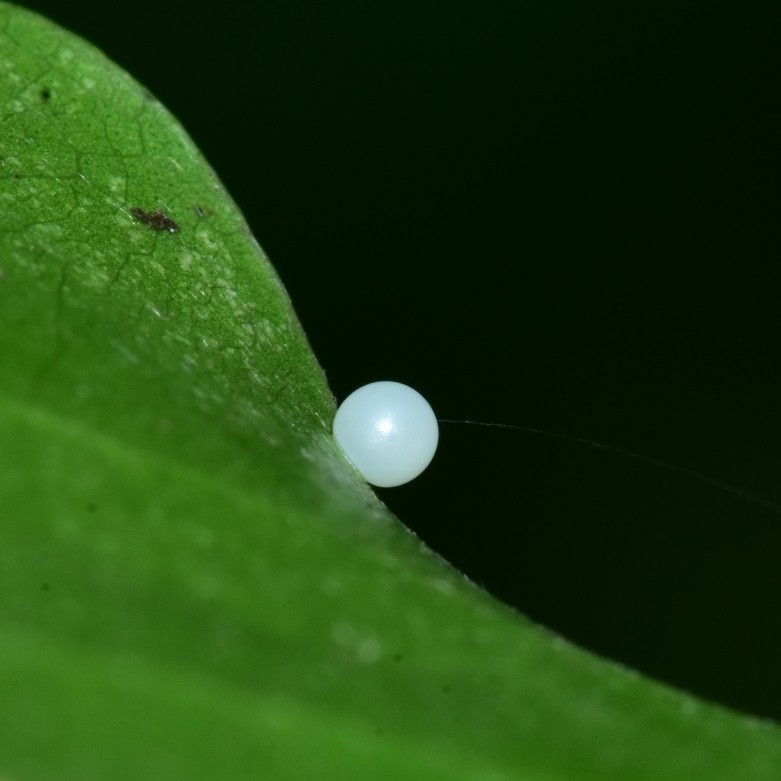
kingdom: Animalia
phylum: Arthropoda
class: Insecta
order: Lepidoptera
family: Papilionidae
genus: Graphium
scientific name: Graphium agamemnon
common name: Tailed jay
